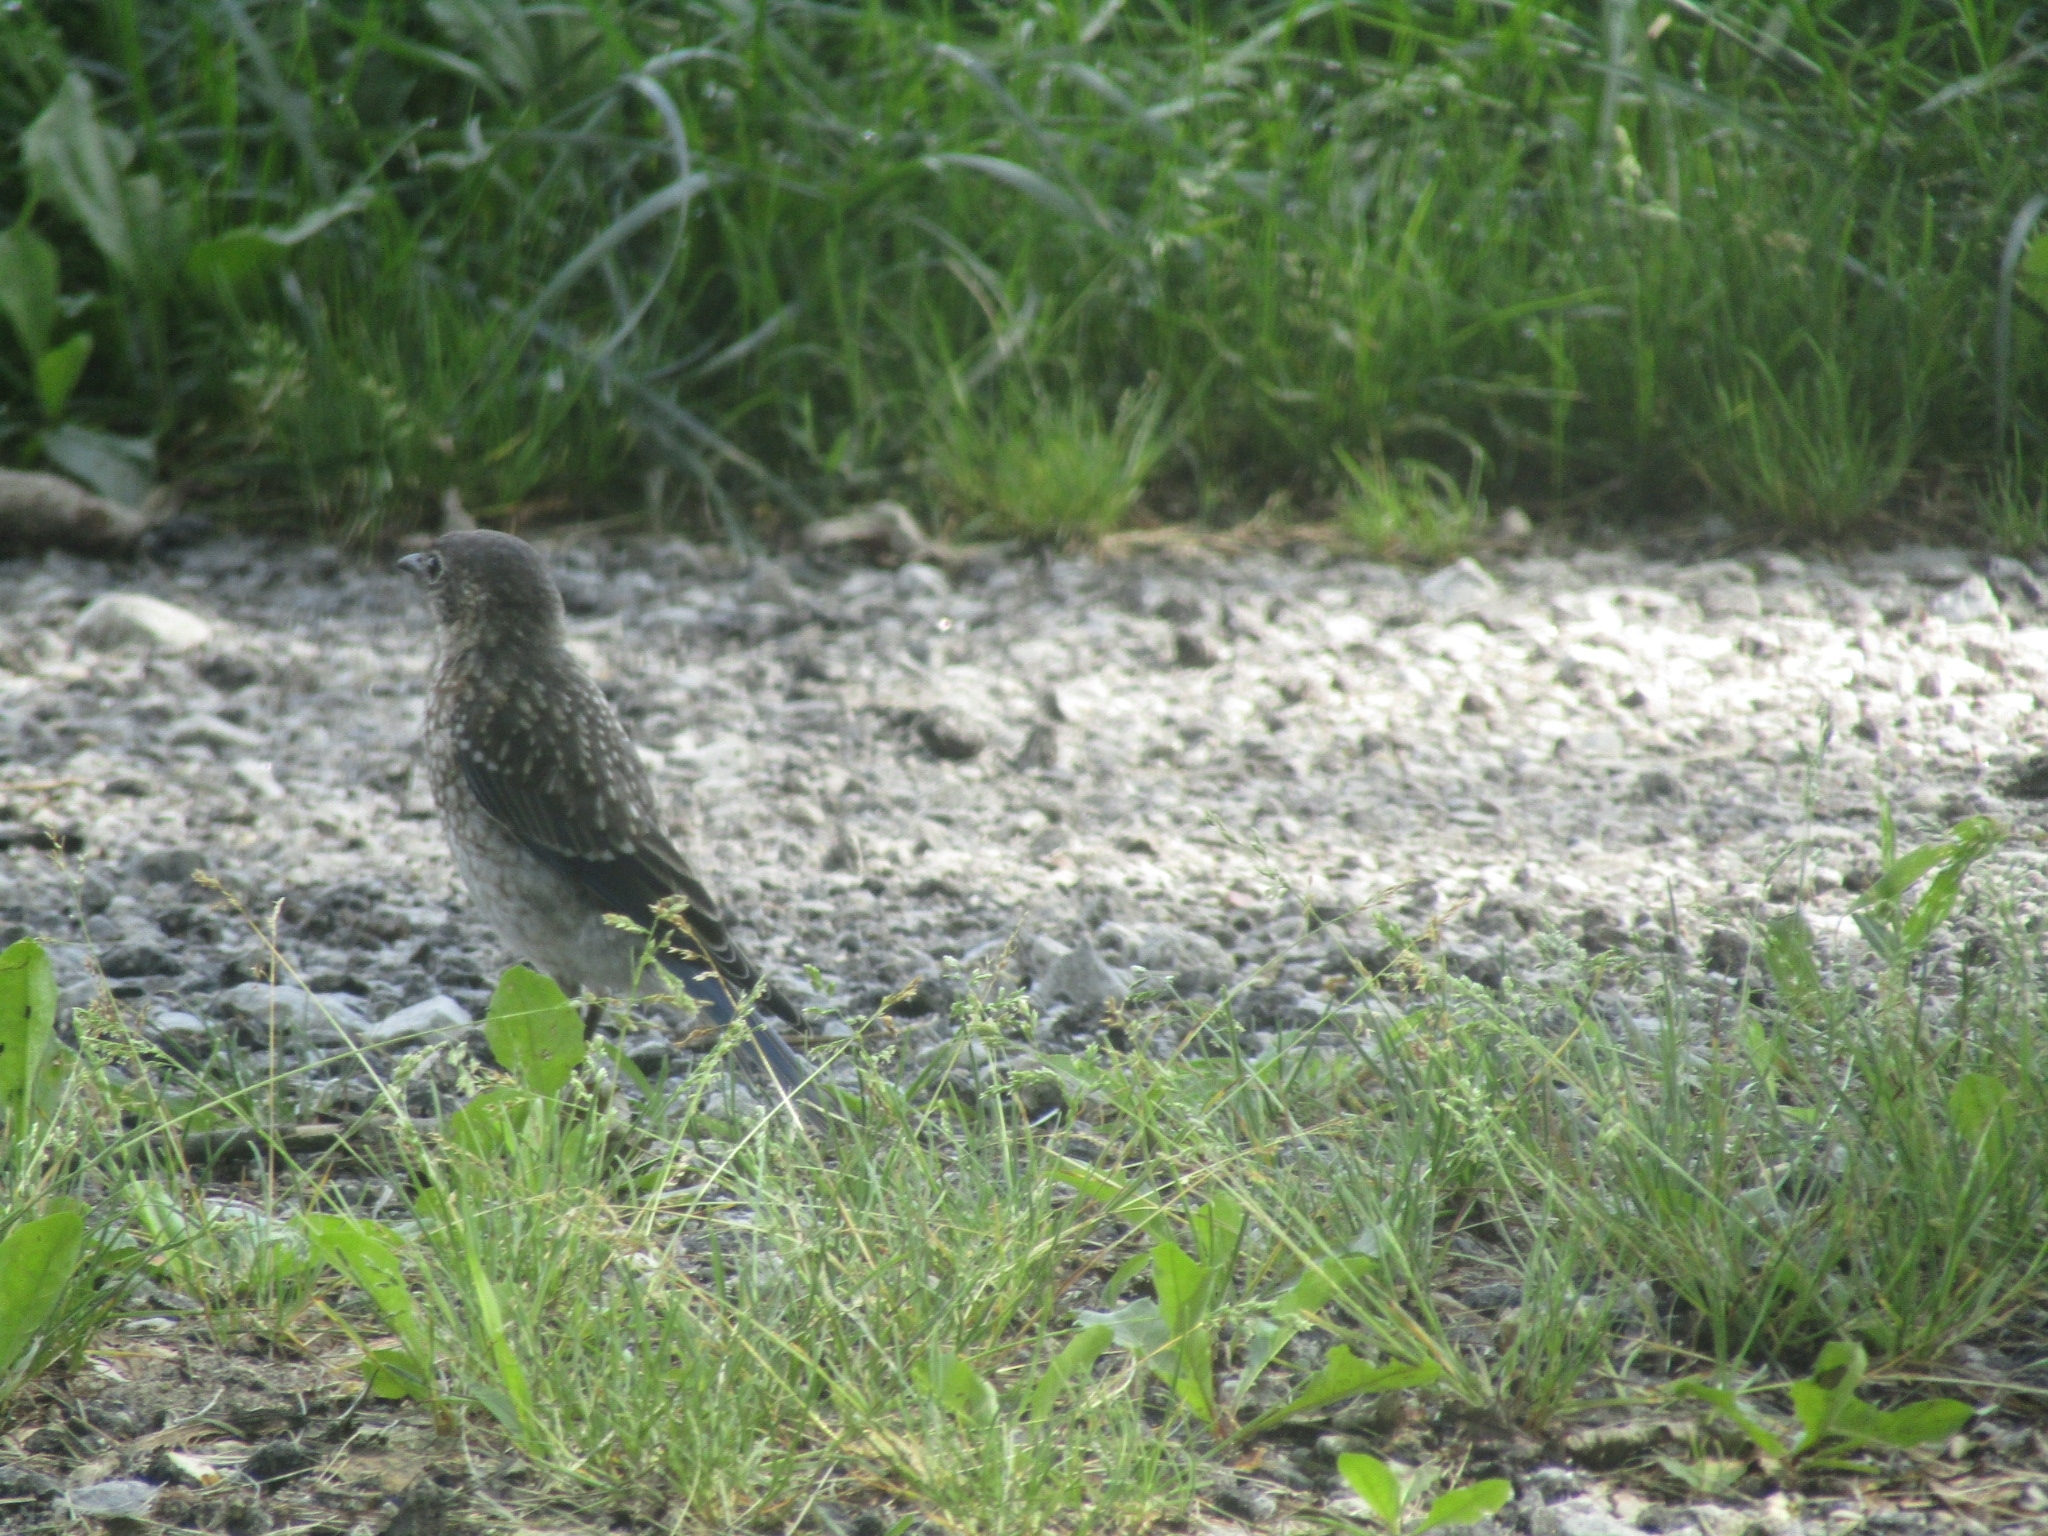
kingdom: Animalia
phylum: Chordata
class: Aves
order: Passeriformes
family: Turdidae
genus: Sialia
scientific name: Sialia sialis
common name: Eastern bluebird
